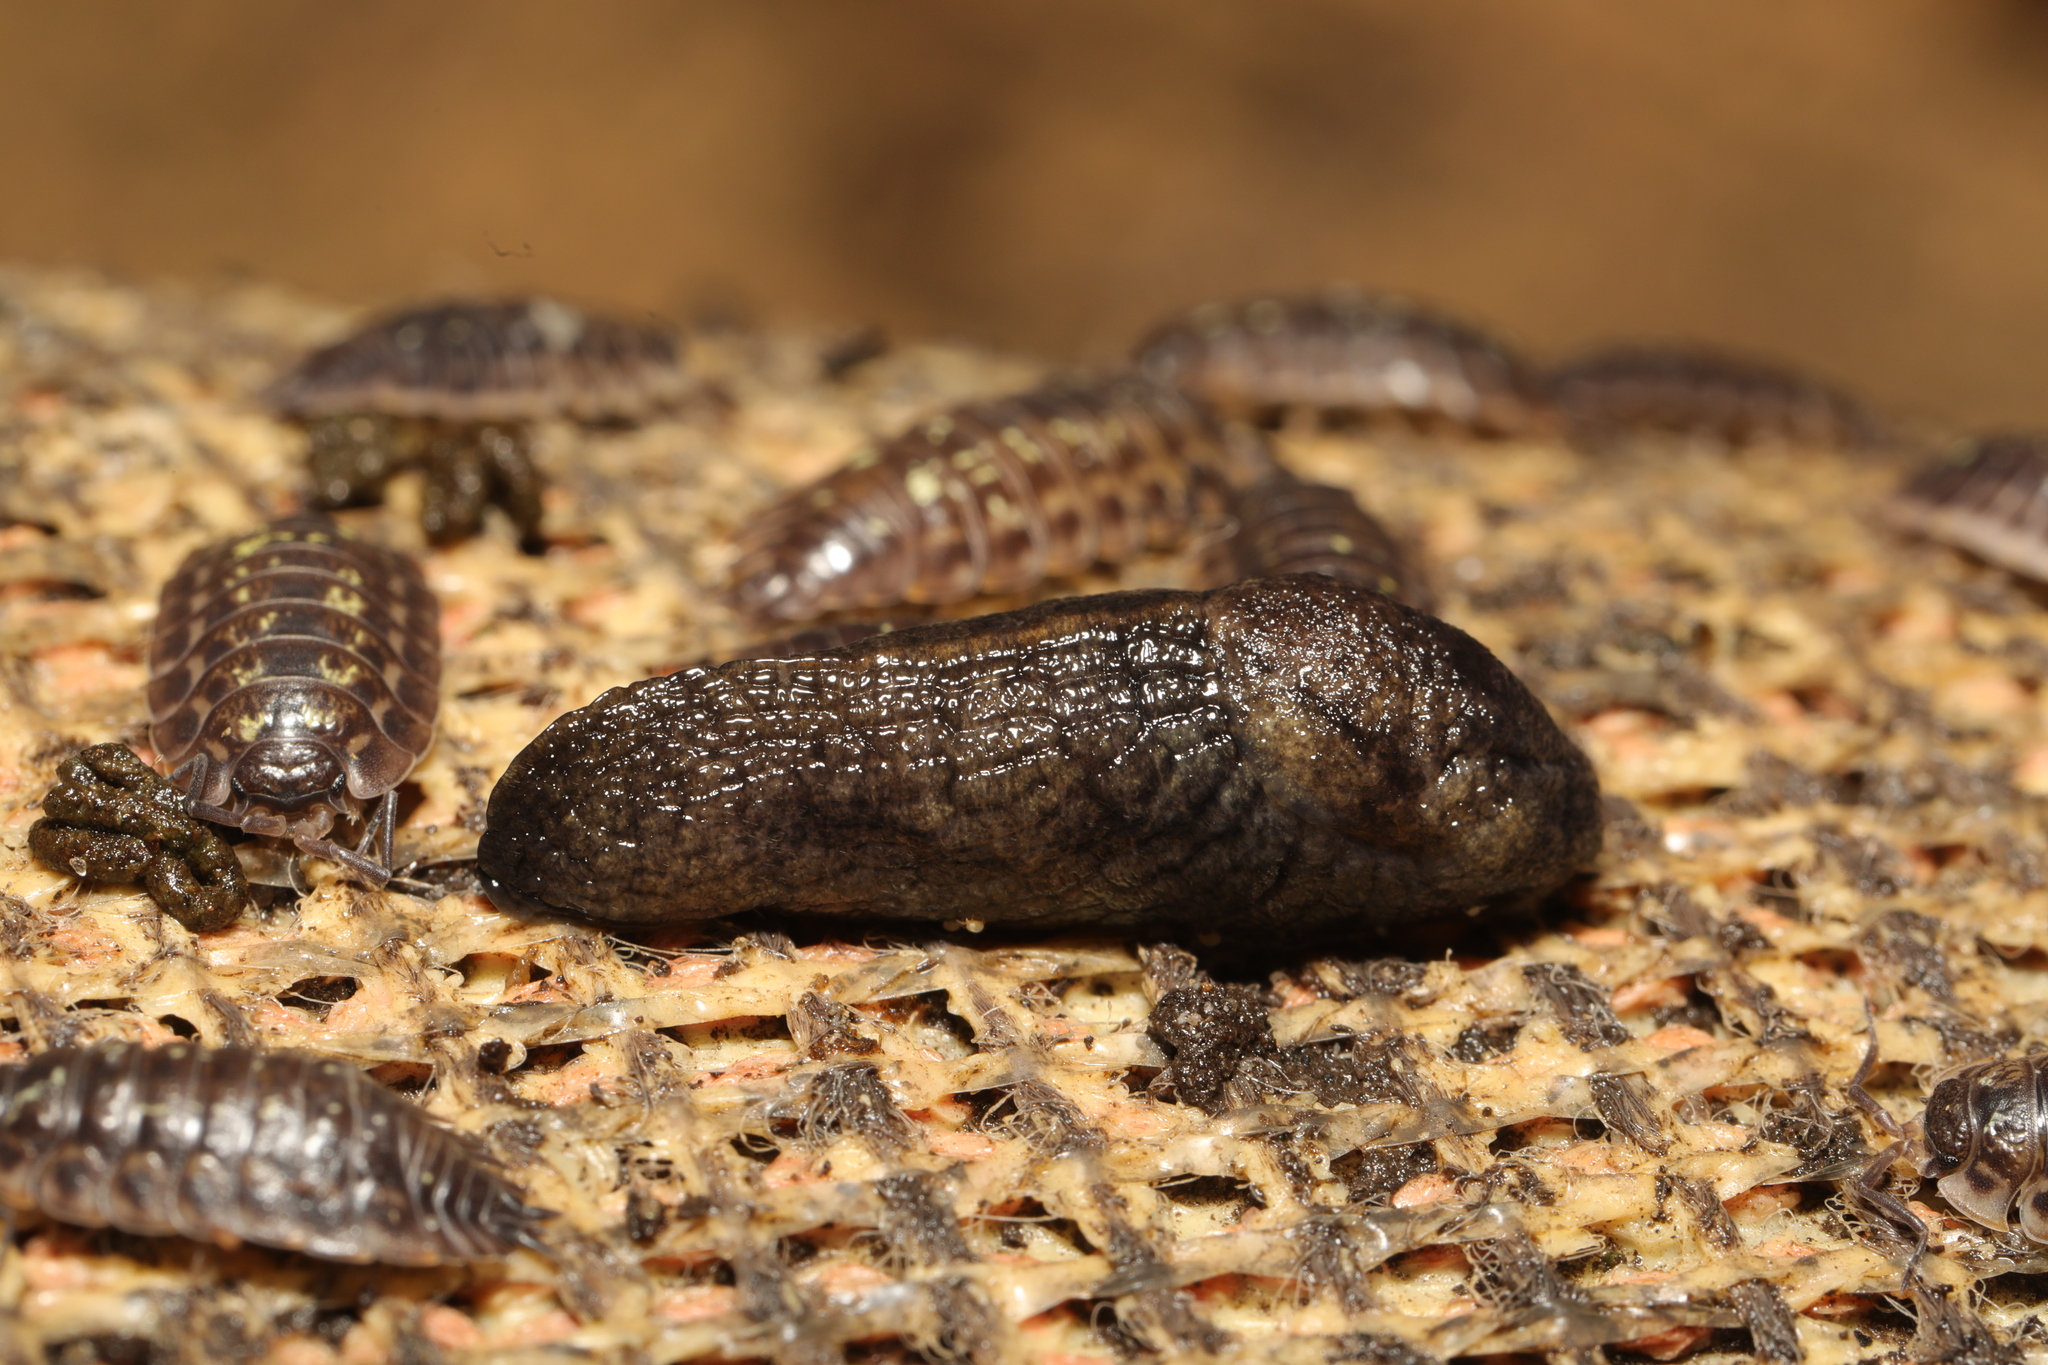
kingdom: Animalia
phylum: Mollusca
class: Gastropoda
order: Stylommatophora
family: Milacidae
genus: Tandonia
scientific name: Tandonia budapestensis
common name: Budapest slug
